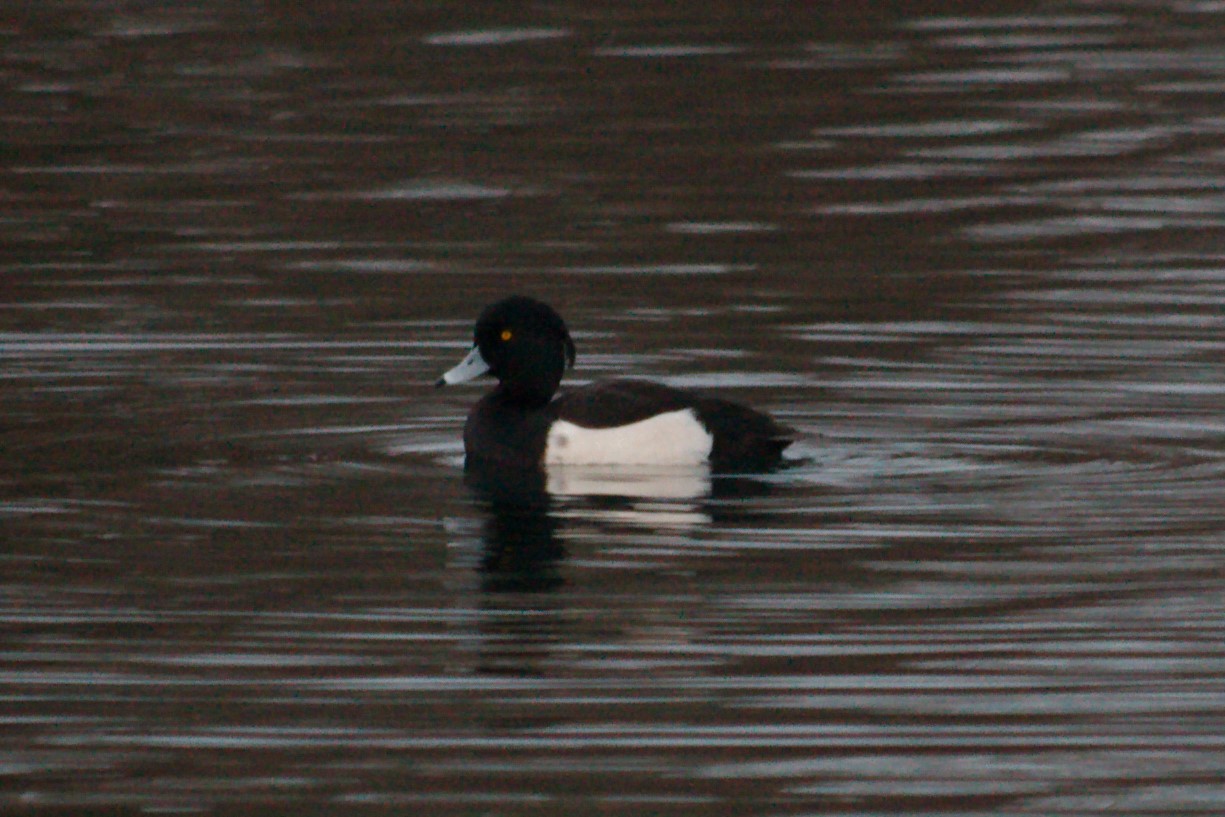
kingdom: Animalia
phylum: Chordata
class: Aves
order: Anseriformes
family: Anatidae
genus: Aythya
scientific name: Aythya fuligula
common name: Tufted duck
